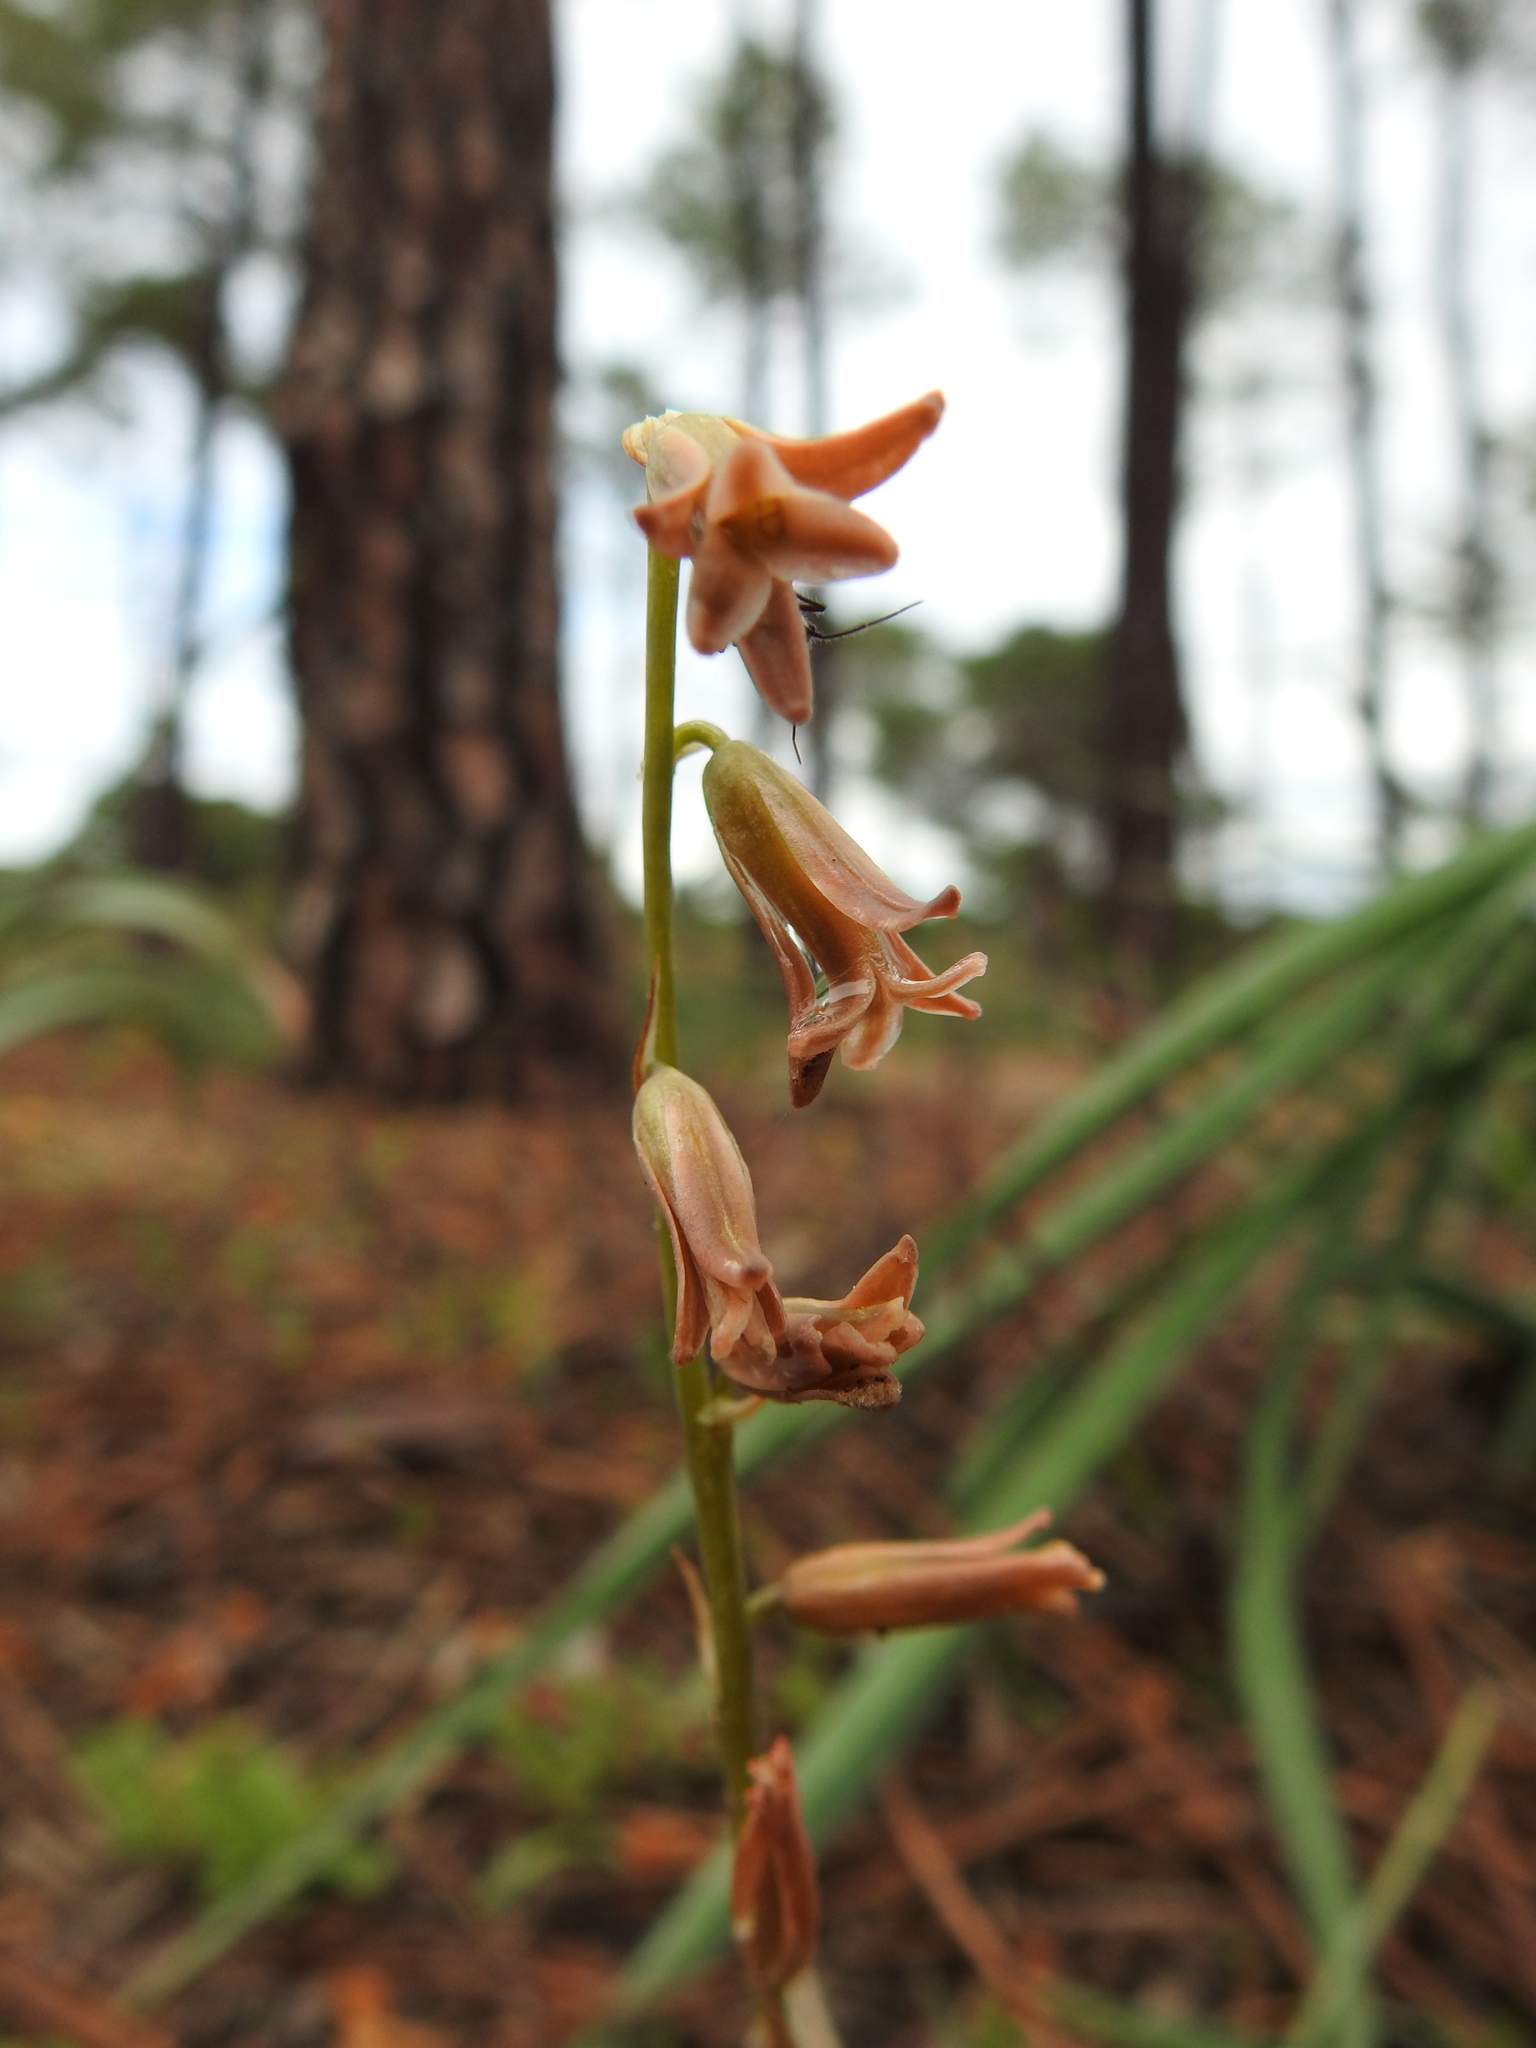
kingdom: Plantae
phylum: Tracheophyta
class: Liliopsida
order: Asparagales
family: Asparagaceae
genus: Dipcadi
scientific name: Dipcadi serotinum
